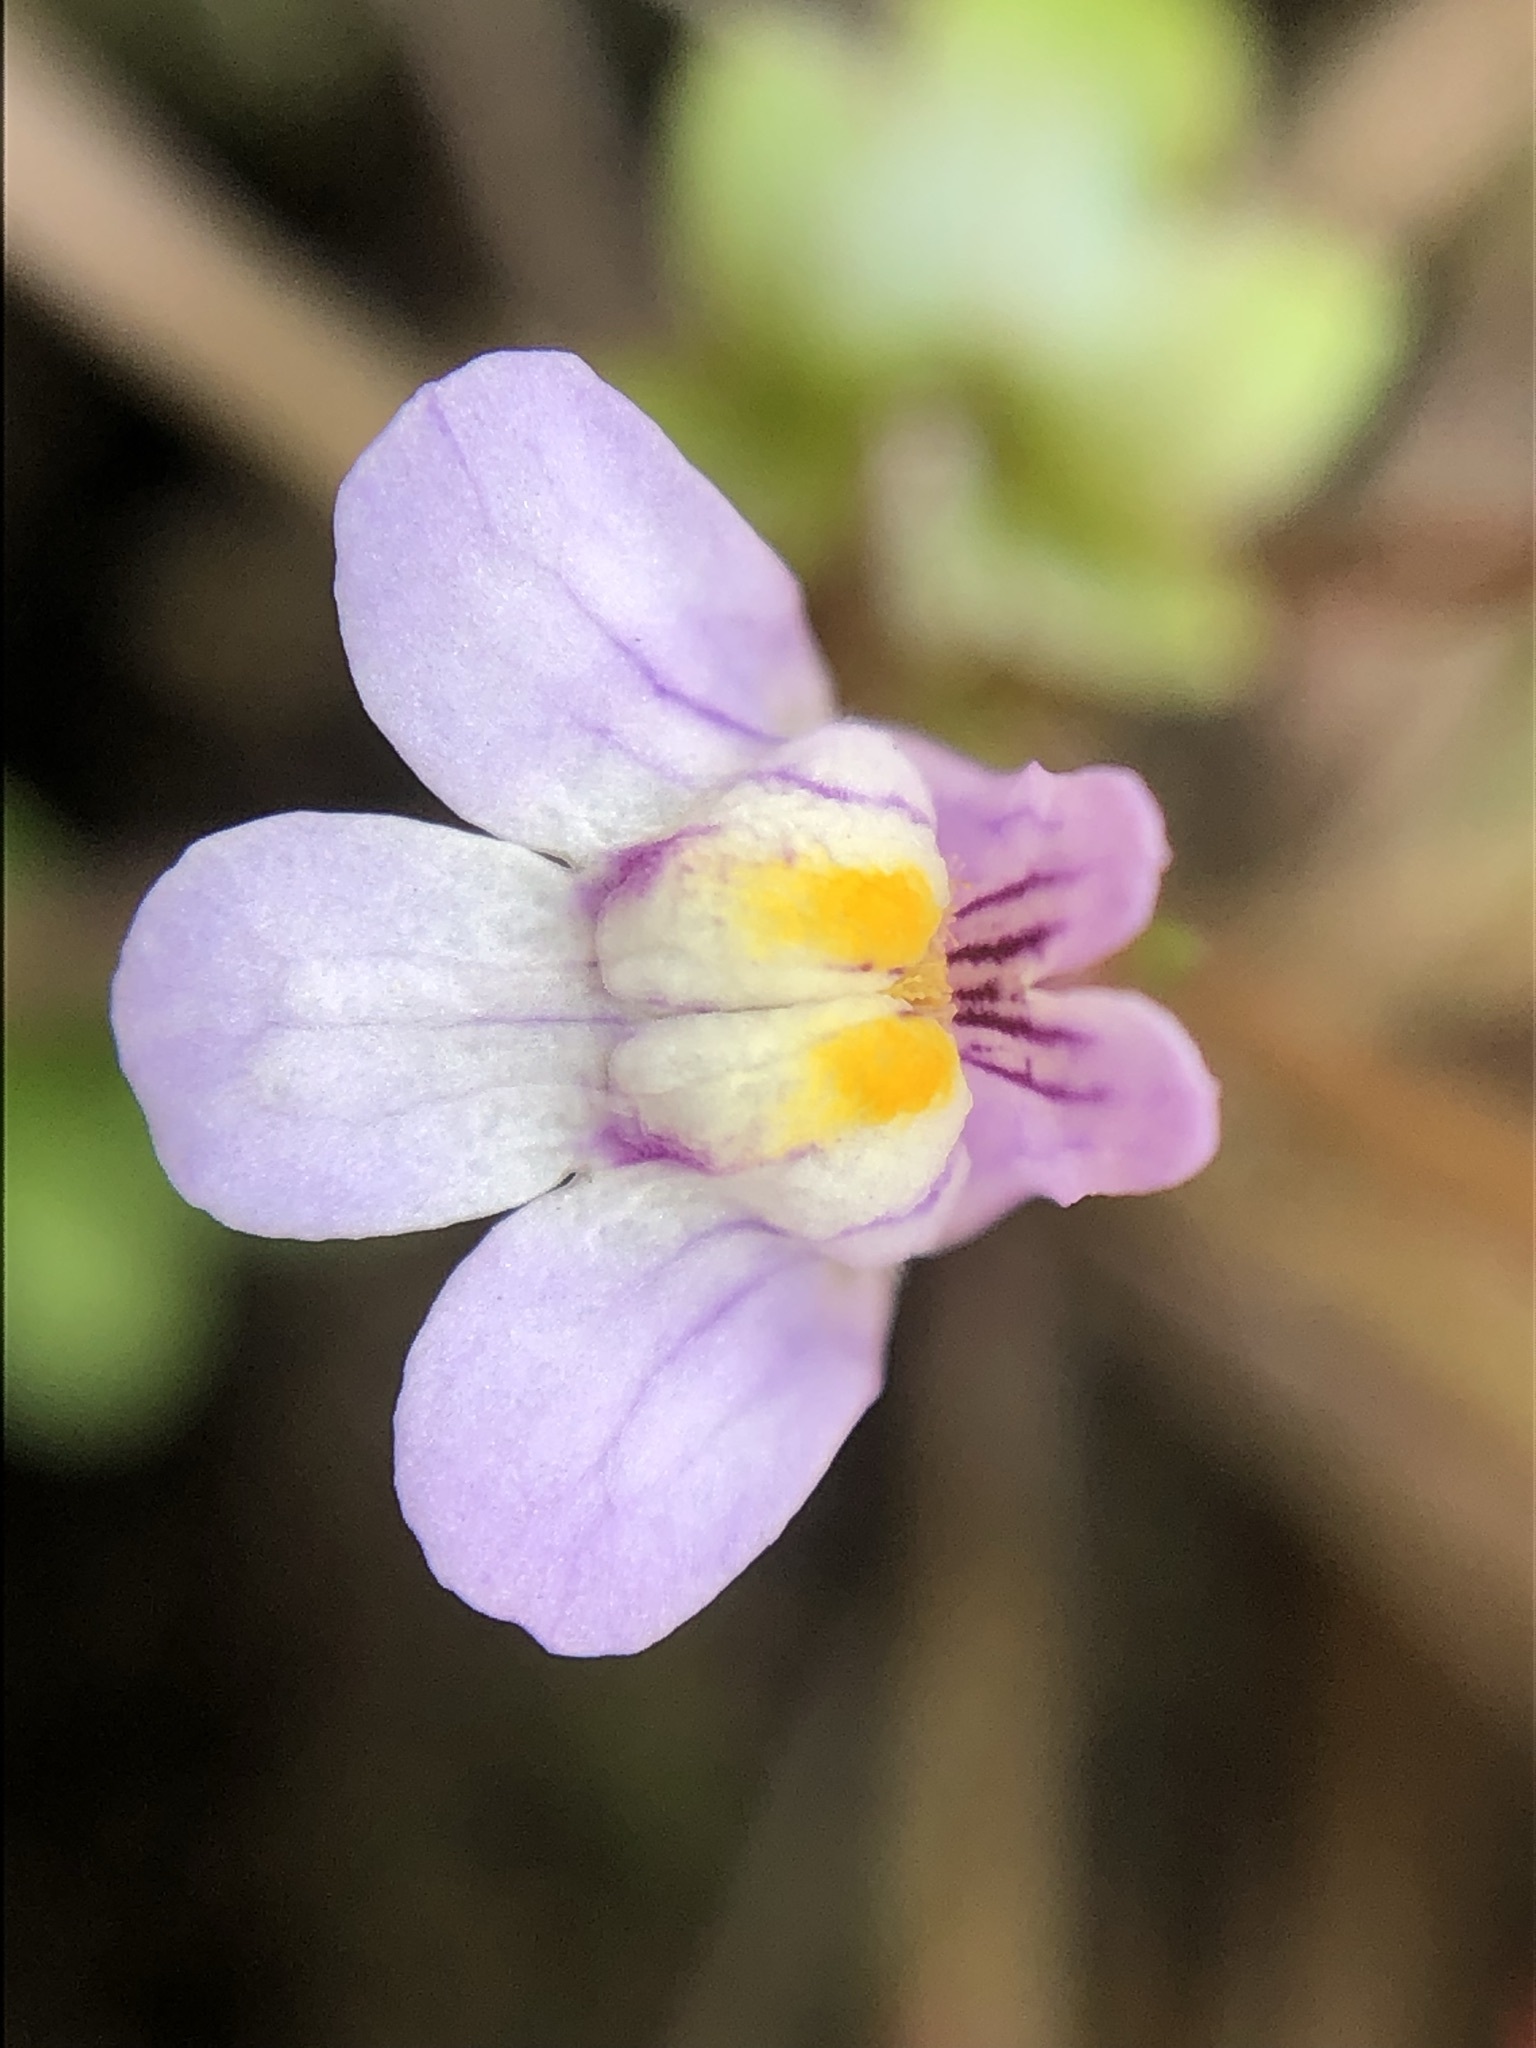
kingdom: Plantae
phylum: Tracheophyta
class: Magnoliopsida
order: Lamiales
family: Plantaginaceae
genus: Cymbalaria
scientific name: Cymbalaria muralis
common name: Ivy-leaved toadflax
